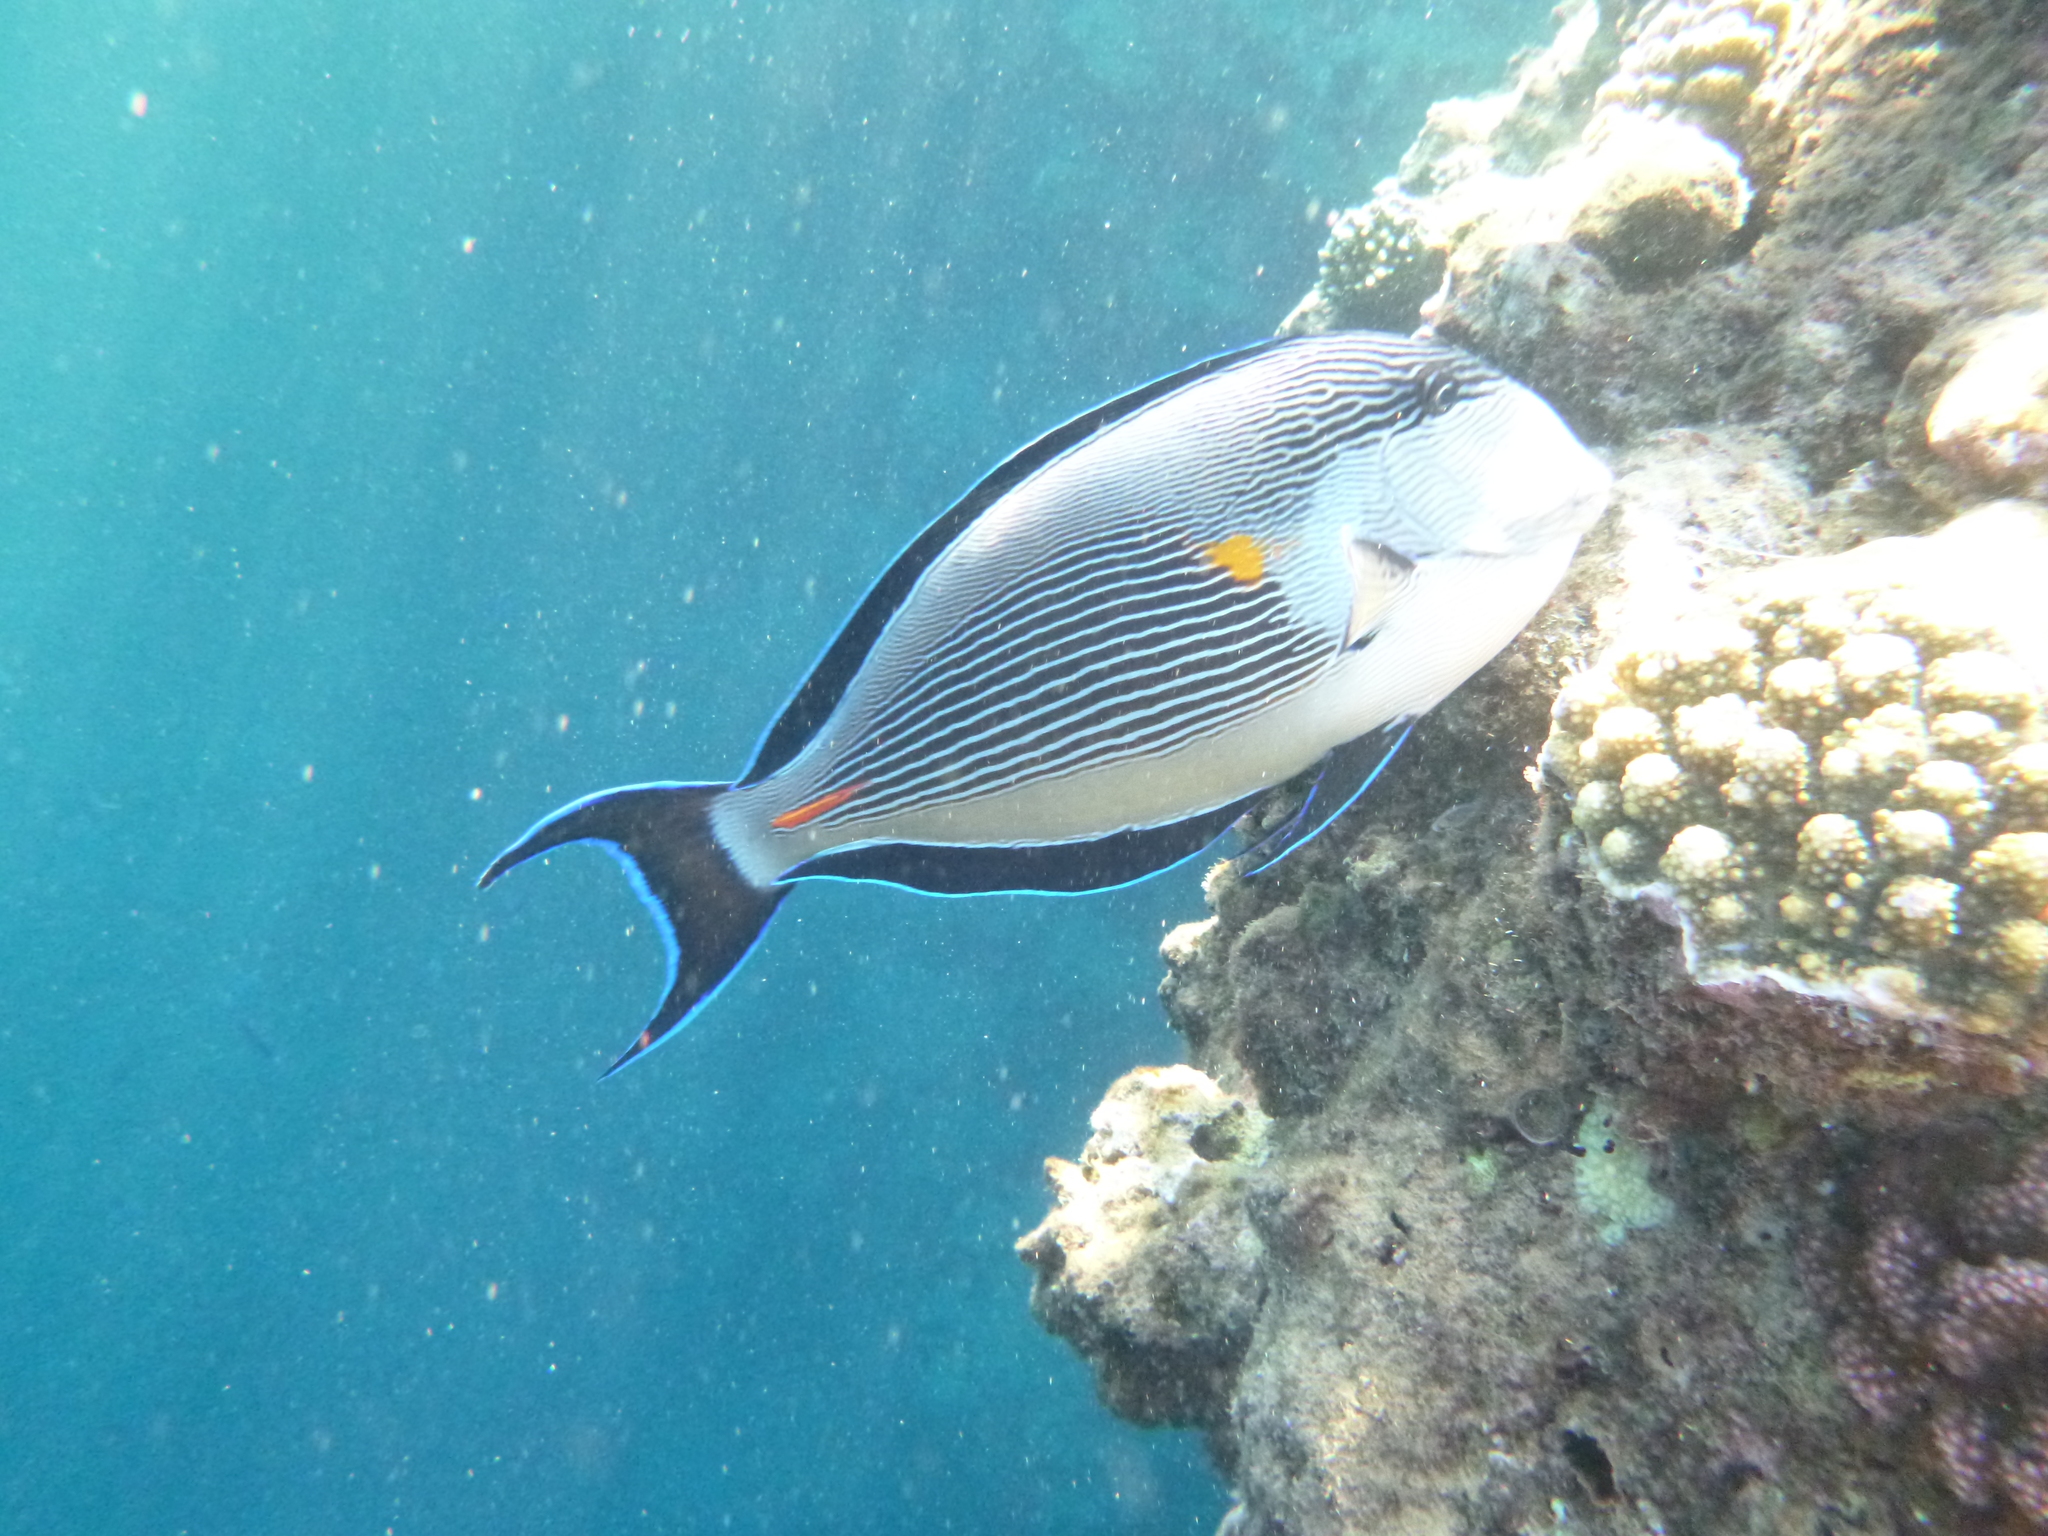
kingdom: Animalia
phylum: Chordata
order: Perciformes
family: Acanthuridae
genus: Acanthurus
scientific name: Acanthurus sohal
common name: Red sea surgeonfish
